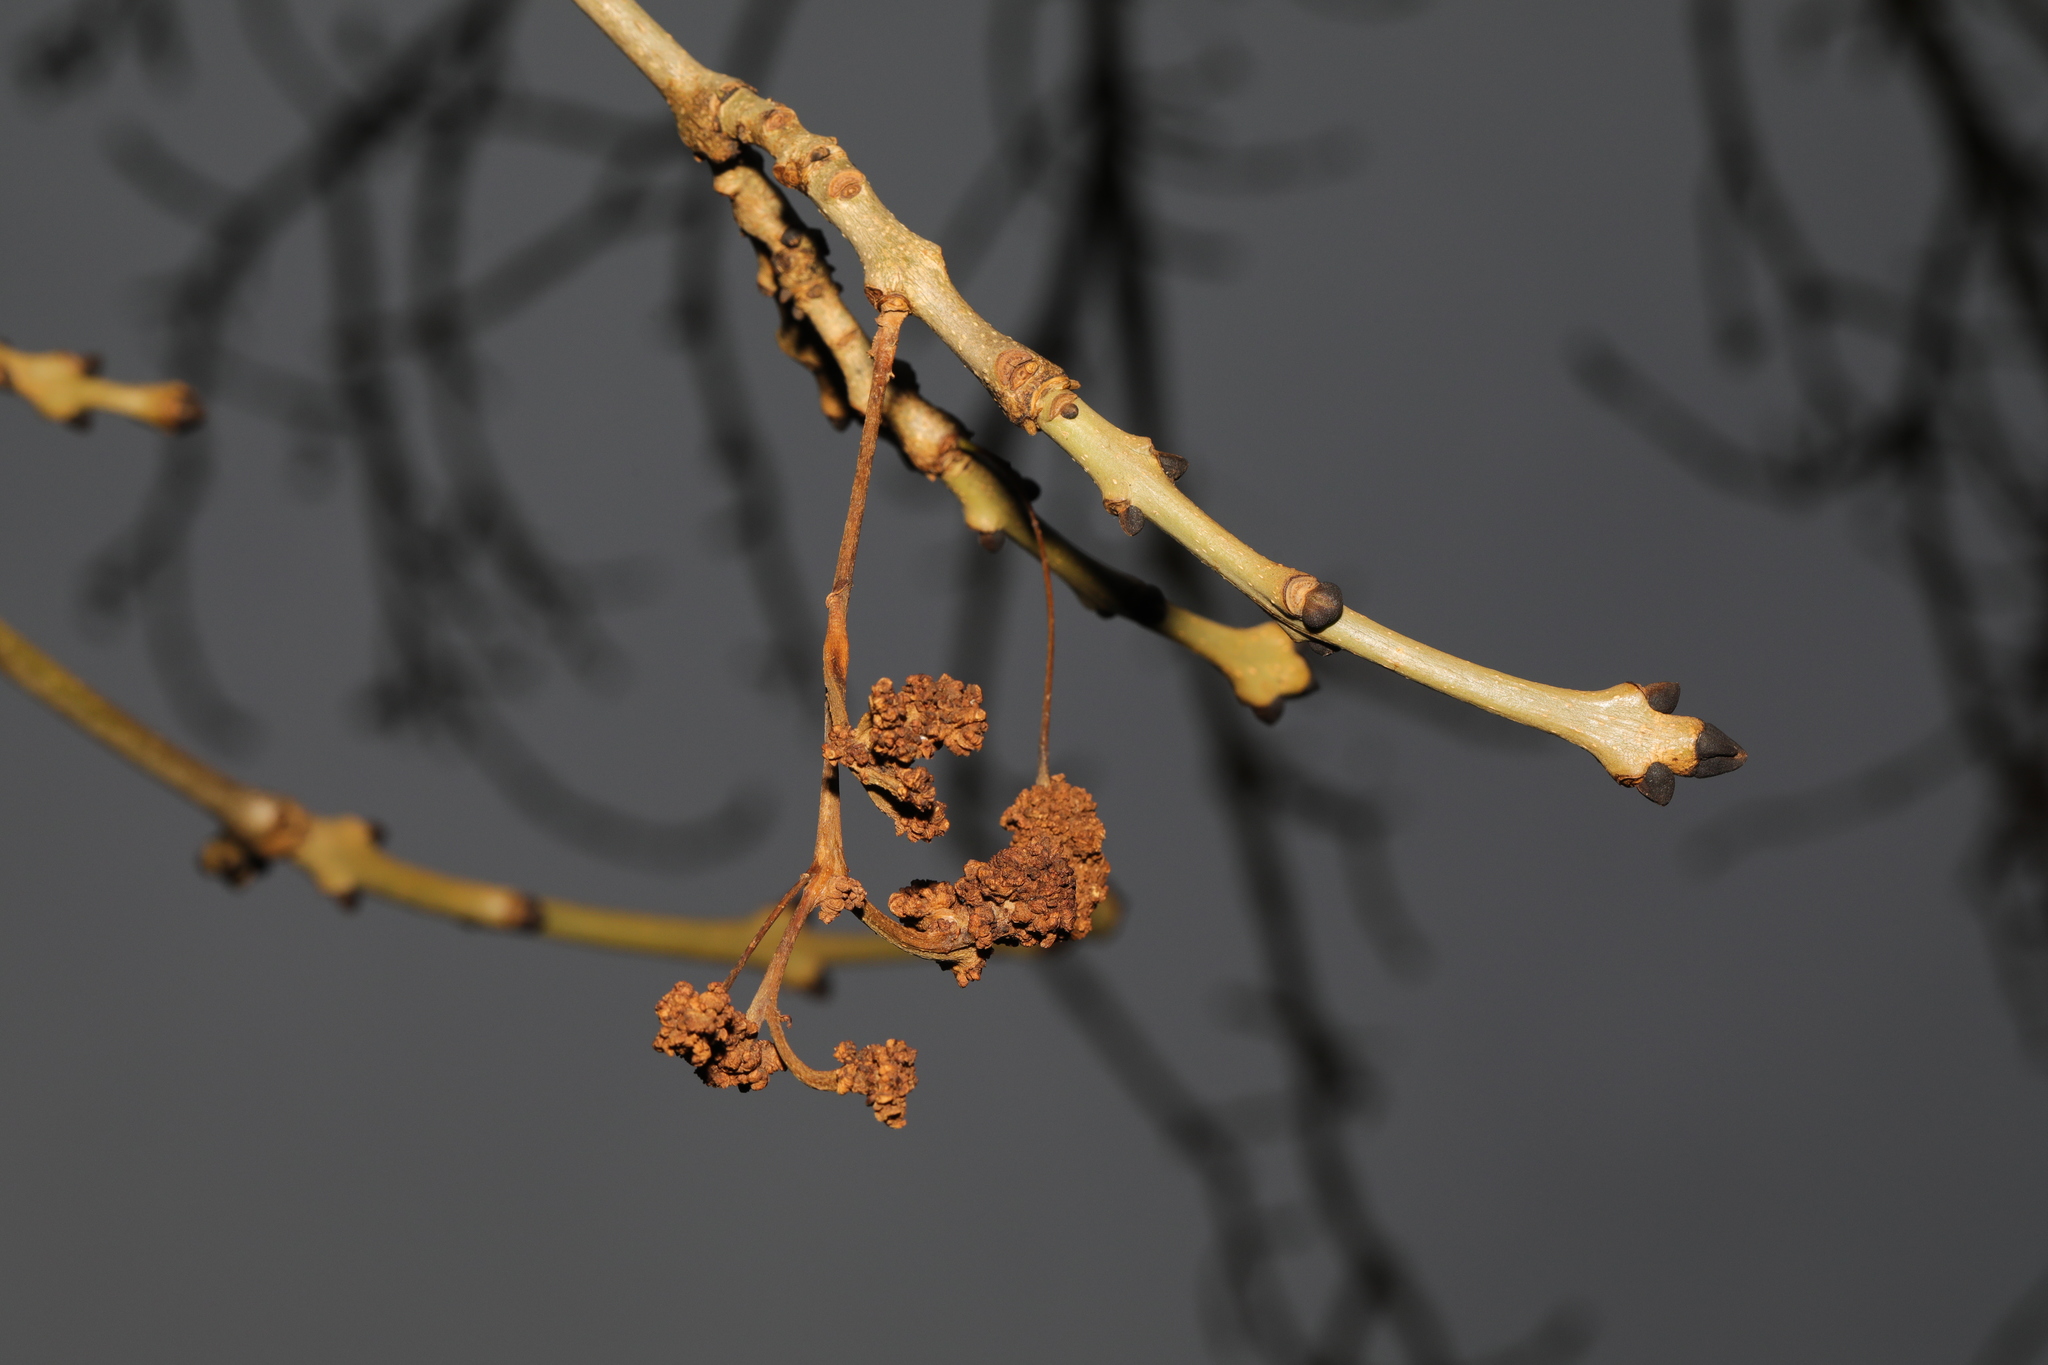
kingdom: Animalia
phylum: Arthropoda
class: Arachnida
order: Trombidiformes
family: Eriophyidae
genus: Aceria
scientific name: Aceria fraxinivora
